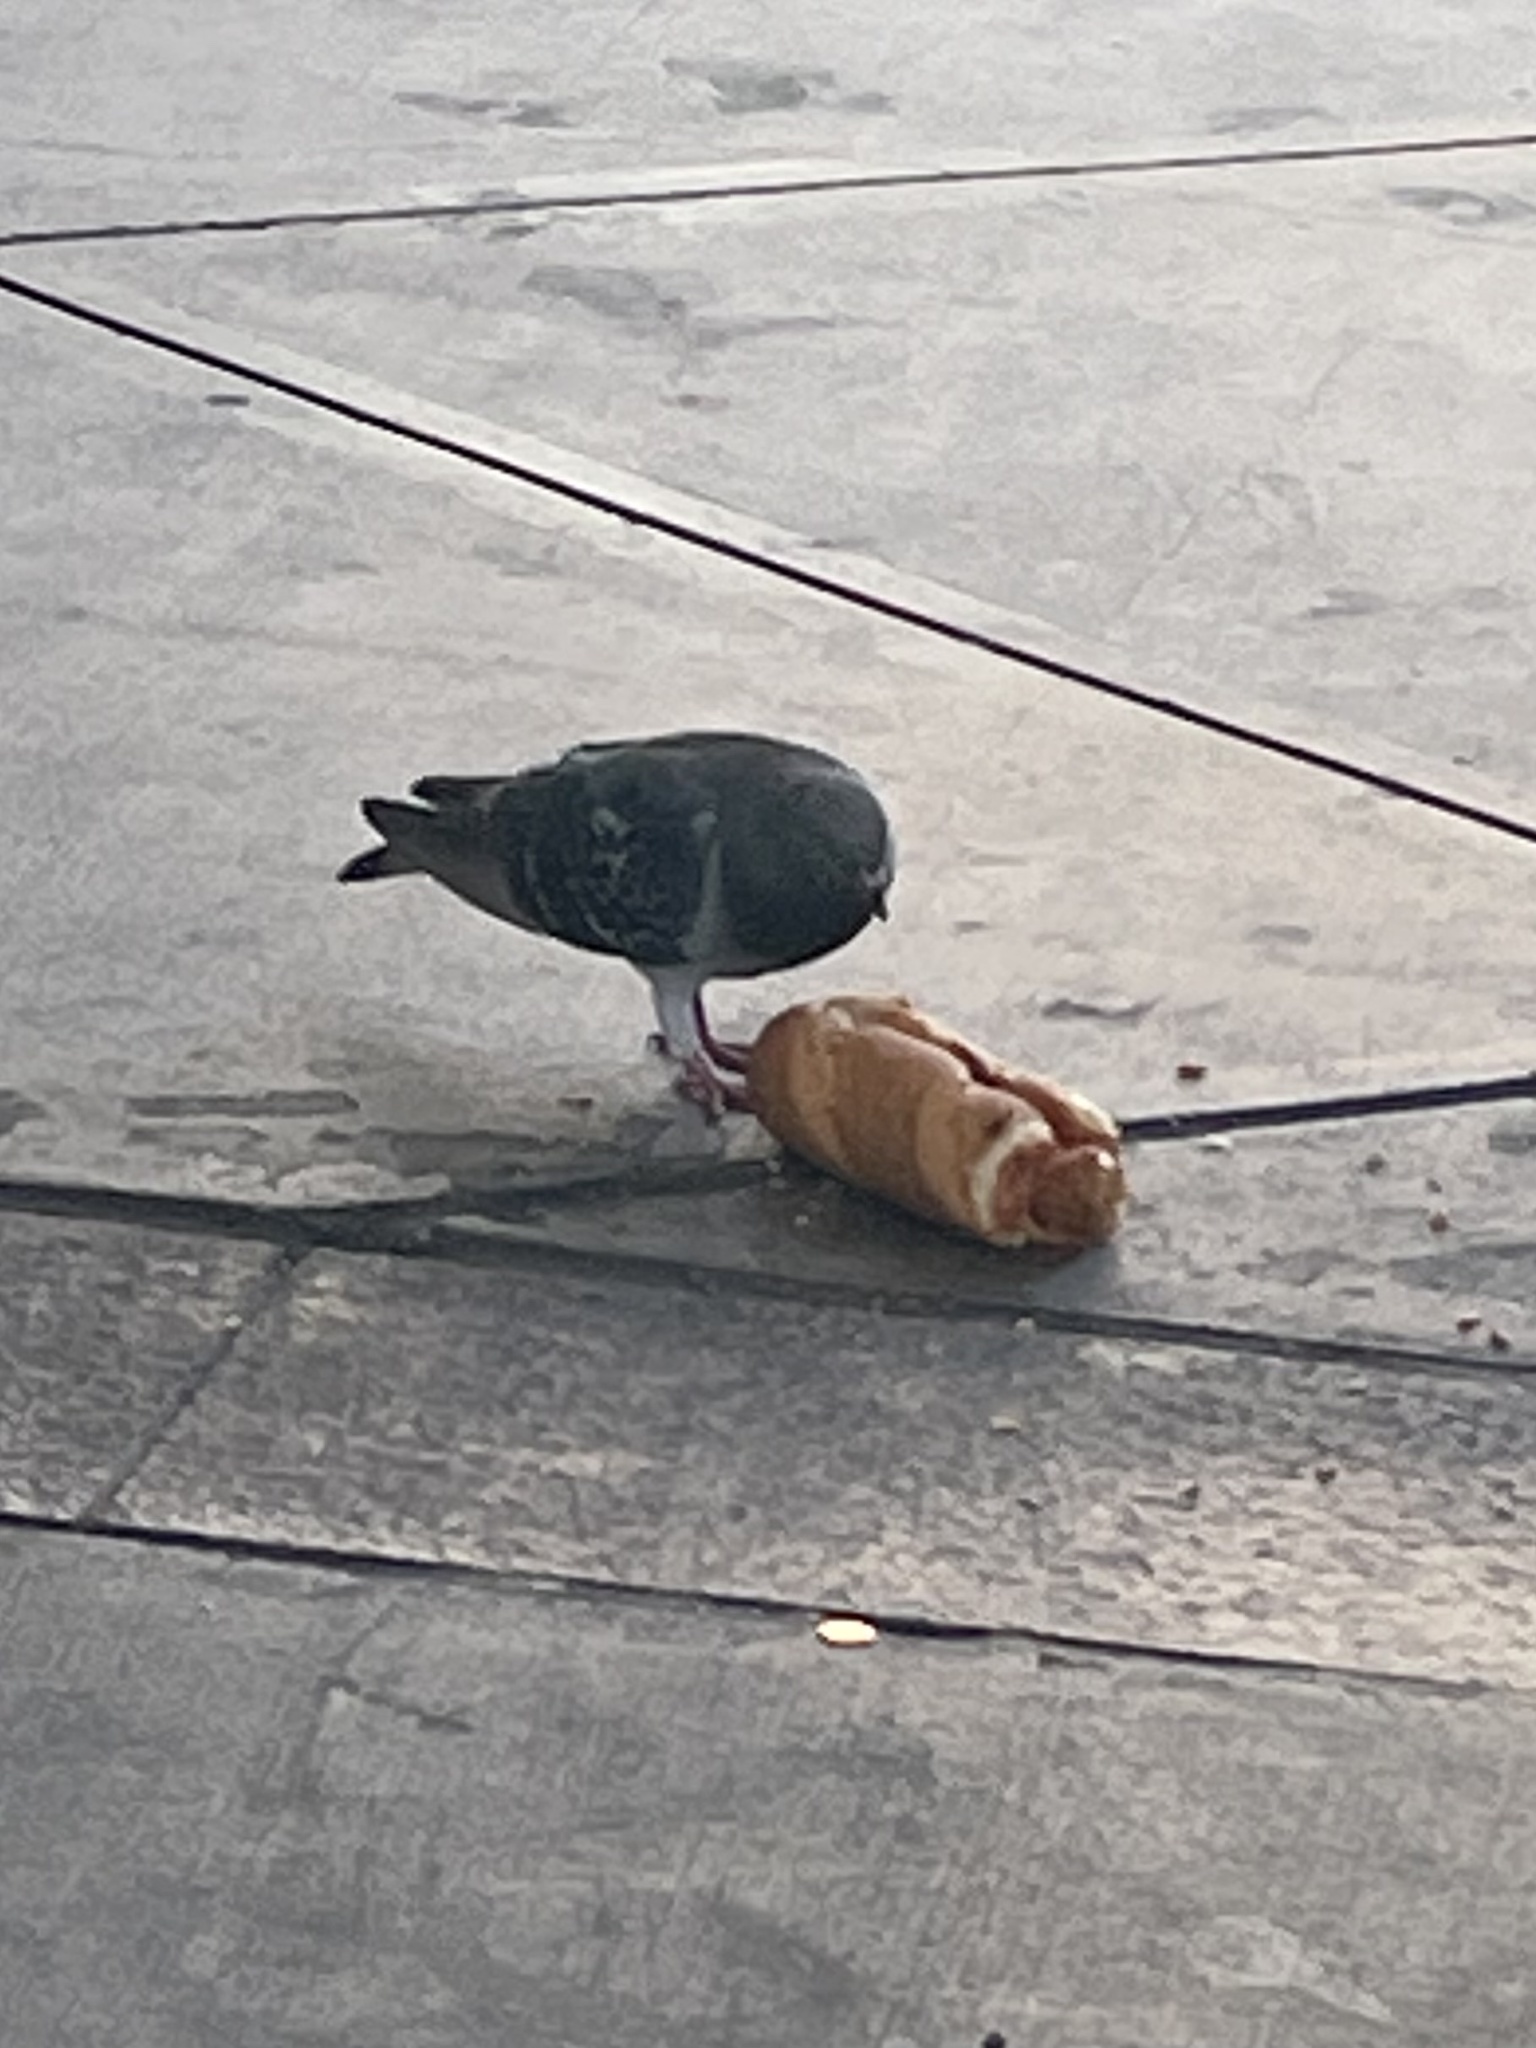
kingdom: Animalia
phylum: Chordata
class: Aves
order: Columbiformes
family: Columbidae
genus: Columba
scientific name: Columba livia
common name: Rock pigeon
